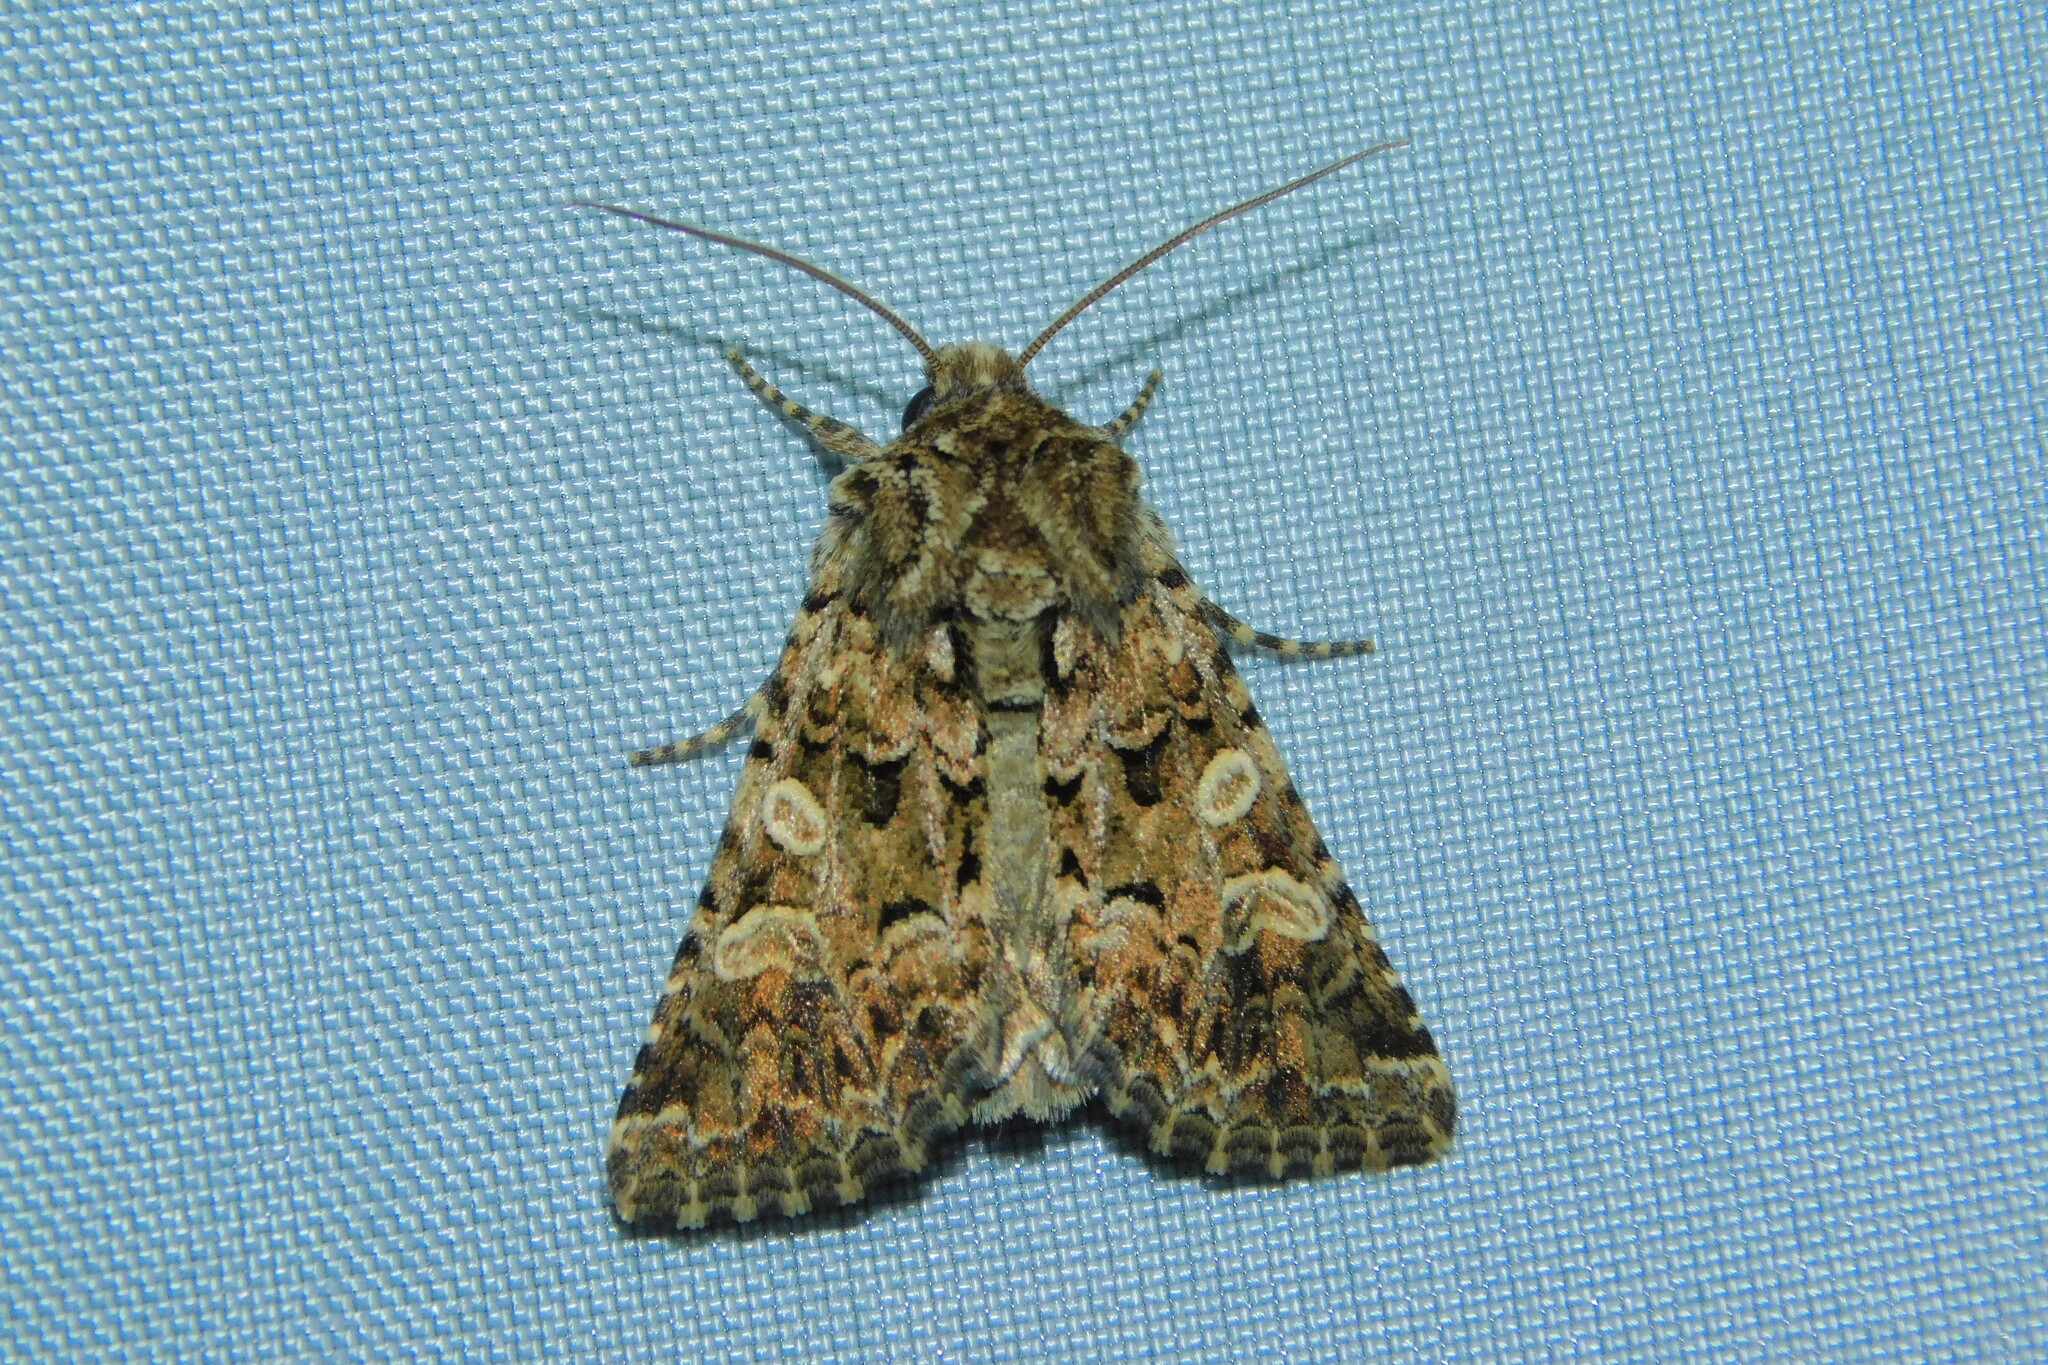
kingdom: Animalia
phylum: Arthropoda
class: Insecta
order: Lepidoptera
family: Noctuidae
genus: Hadena
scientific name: Hadena perplexa
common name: Tawny shears
